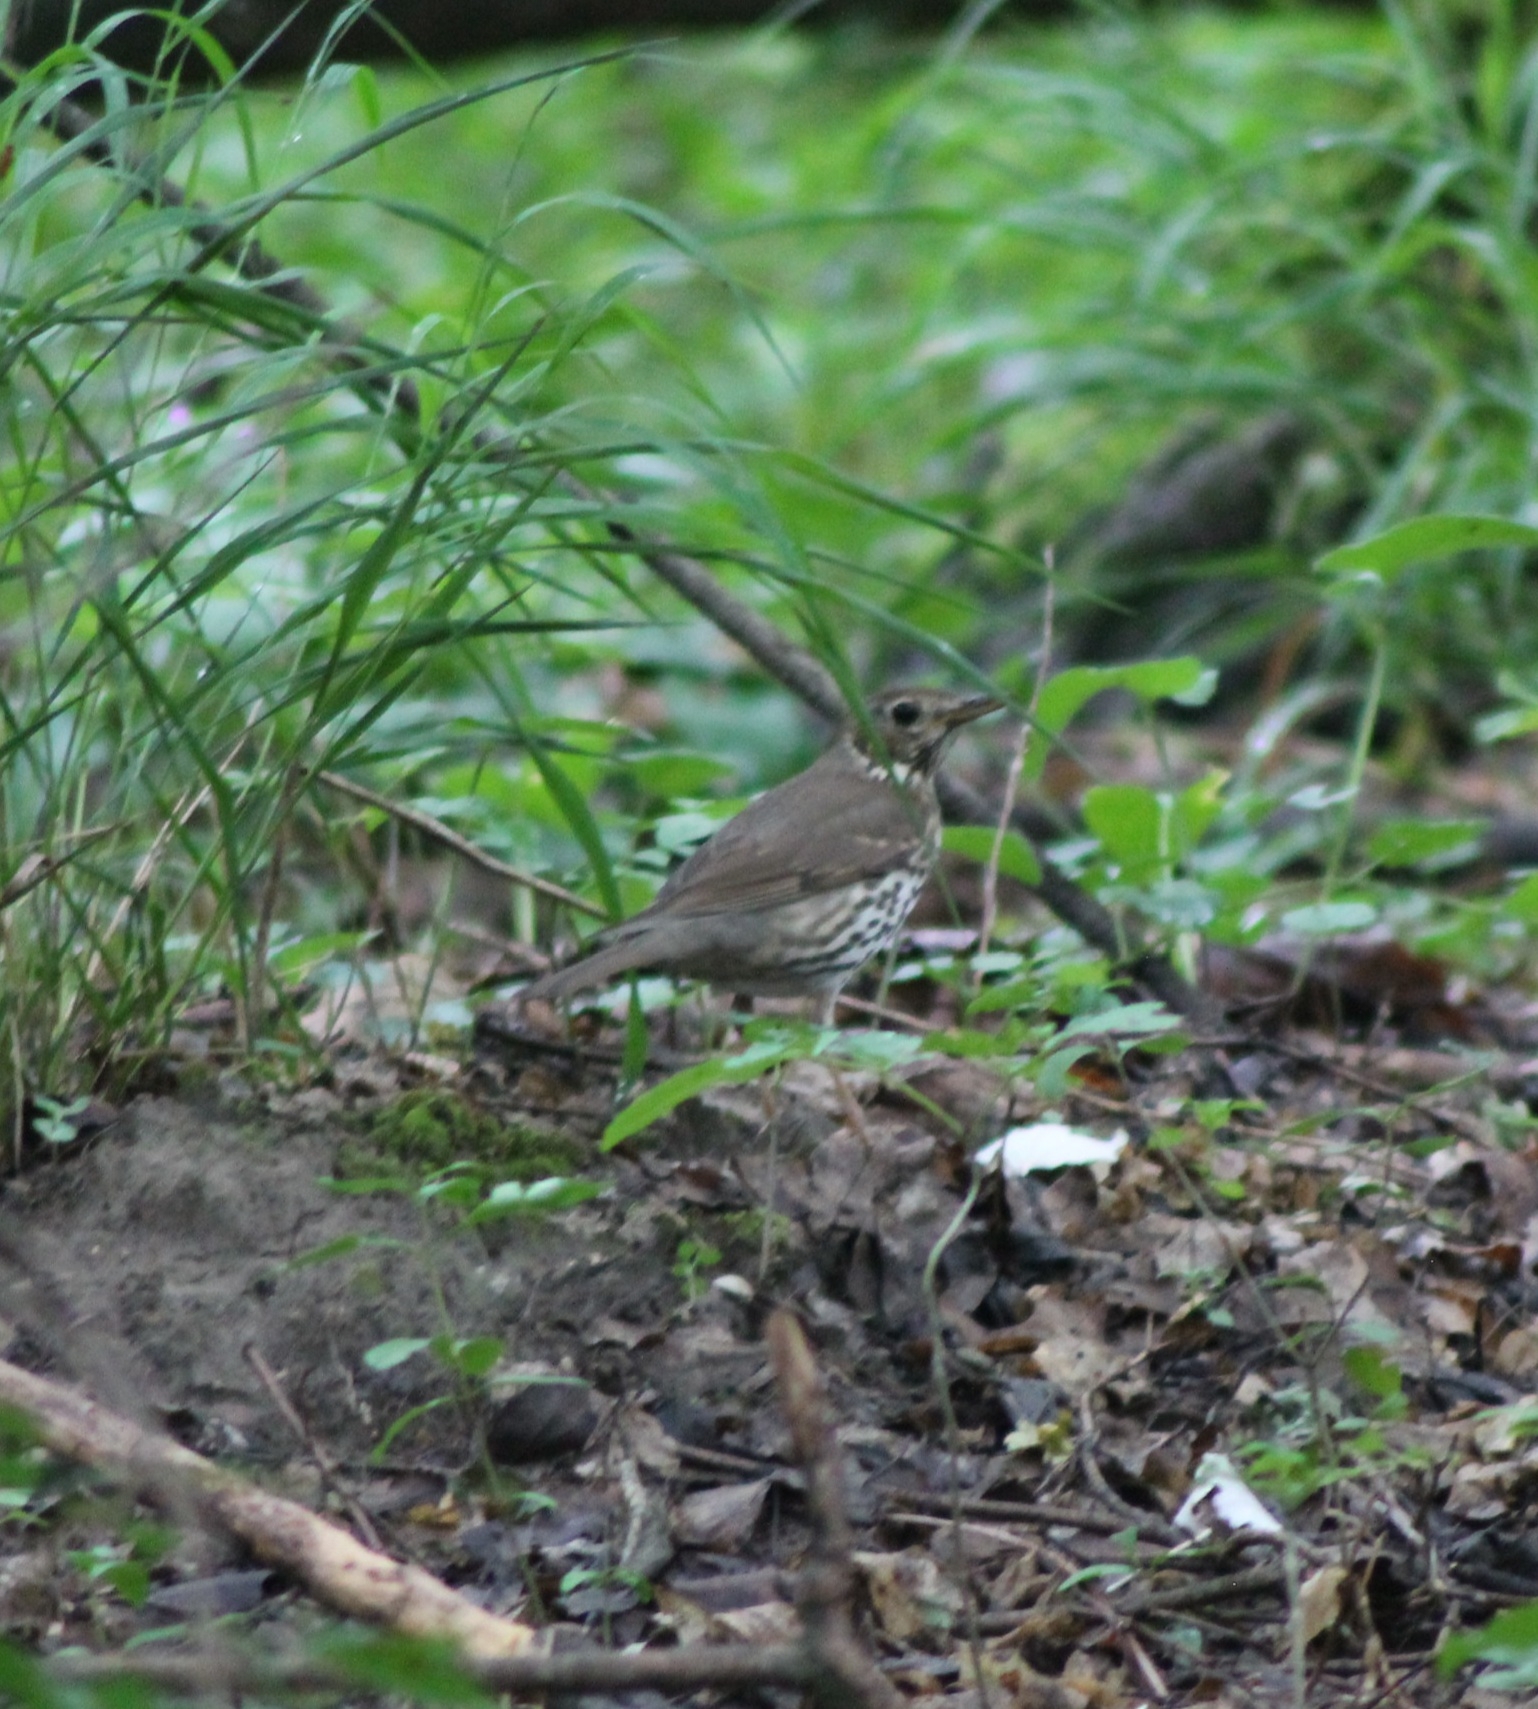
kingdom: Animalia
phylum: Chordata
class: Aves
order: Passeriformes
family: Turdidae
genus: Turdus
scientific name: Turdus philomelos
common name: Song thrush
